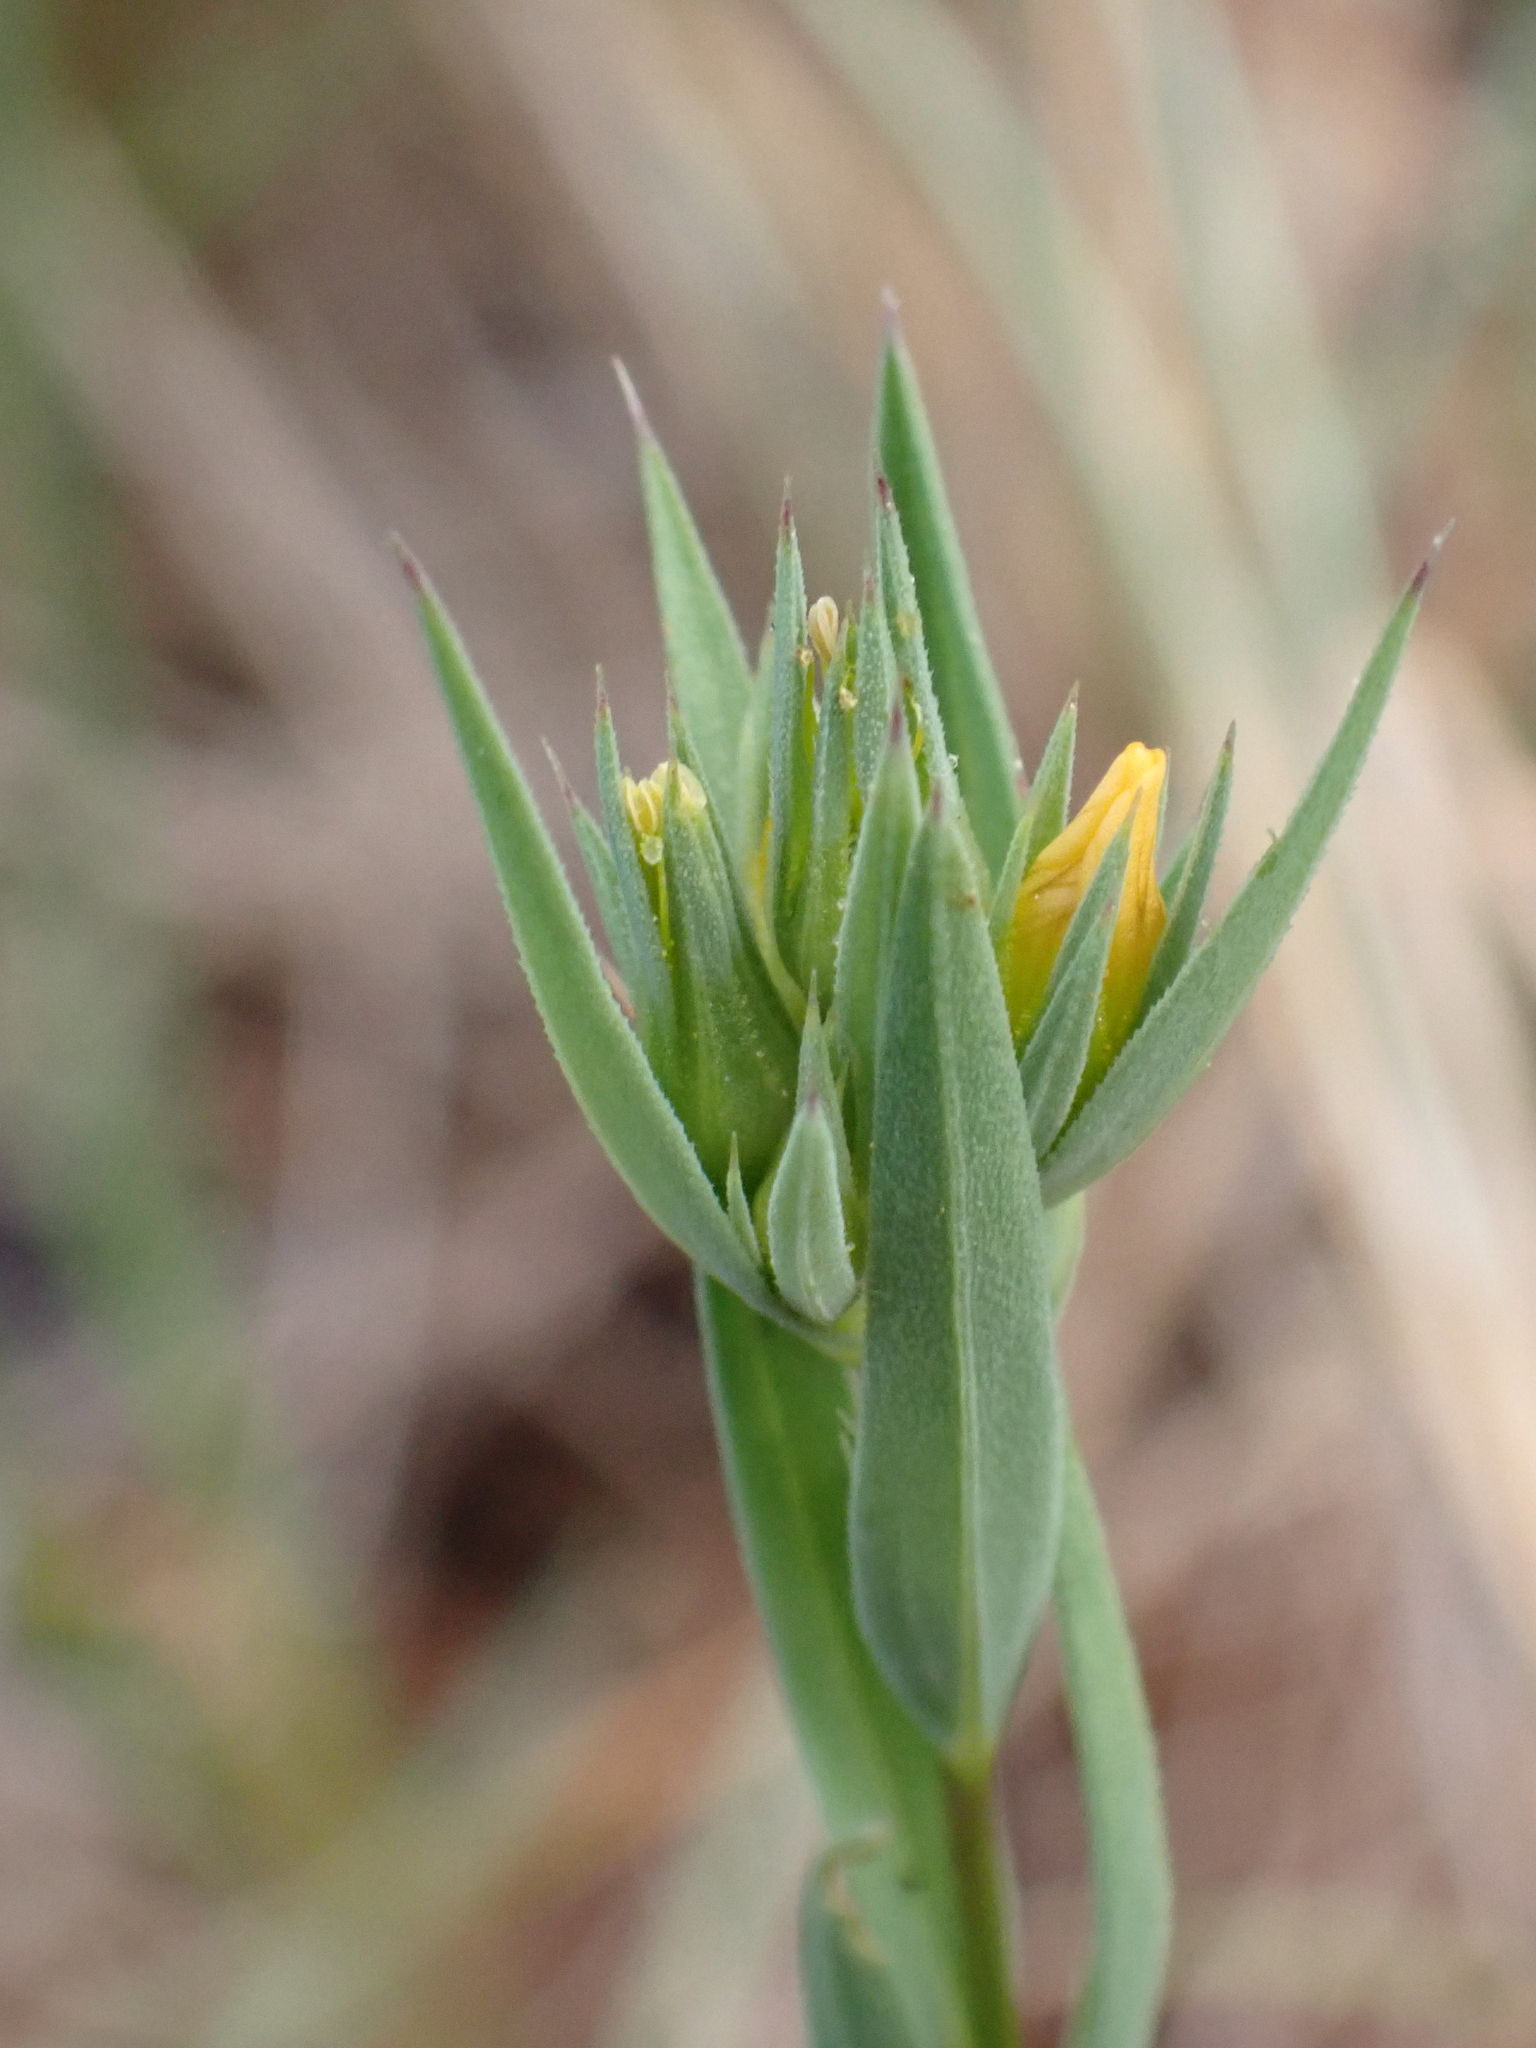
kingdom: Plantae
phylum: Tracheophyta
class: Magnoliopsida
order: Malpighiales
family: Linaceae
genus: Linum
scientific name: Linum strictum
